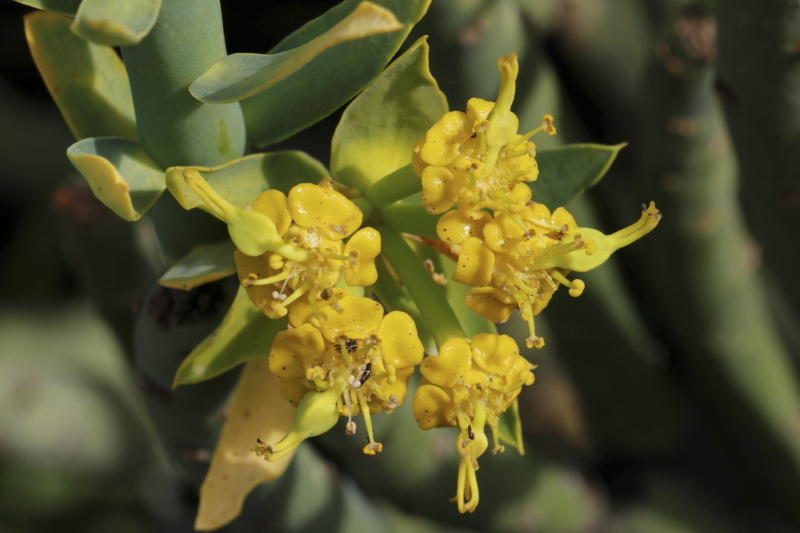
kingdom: Plantae
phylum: Tracheophyta
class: Magnoliopsida
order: Malpighiales
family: Euphorbiaceae
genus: Euphorbia
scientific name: Euphorbia mauritanica
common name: Jackal's-food
